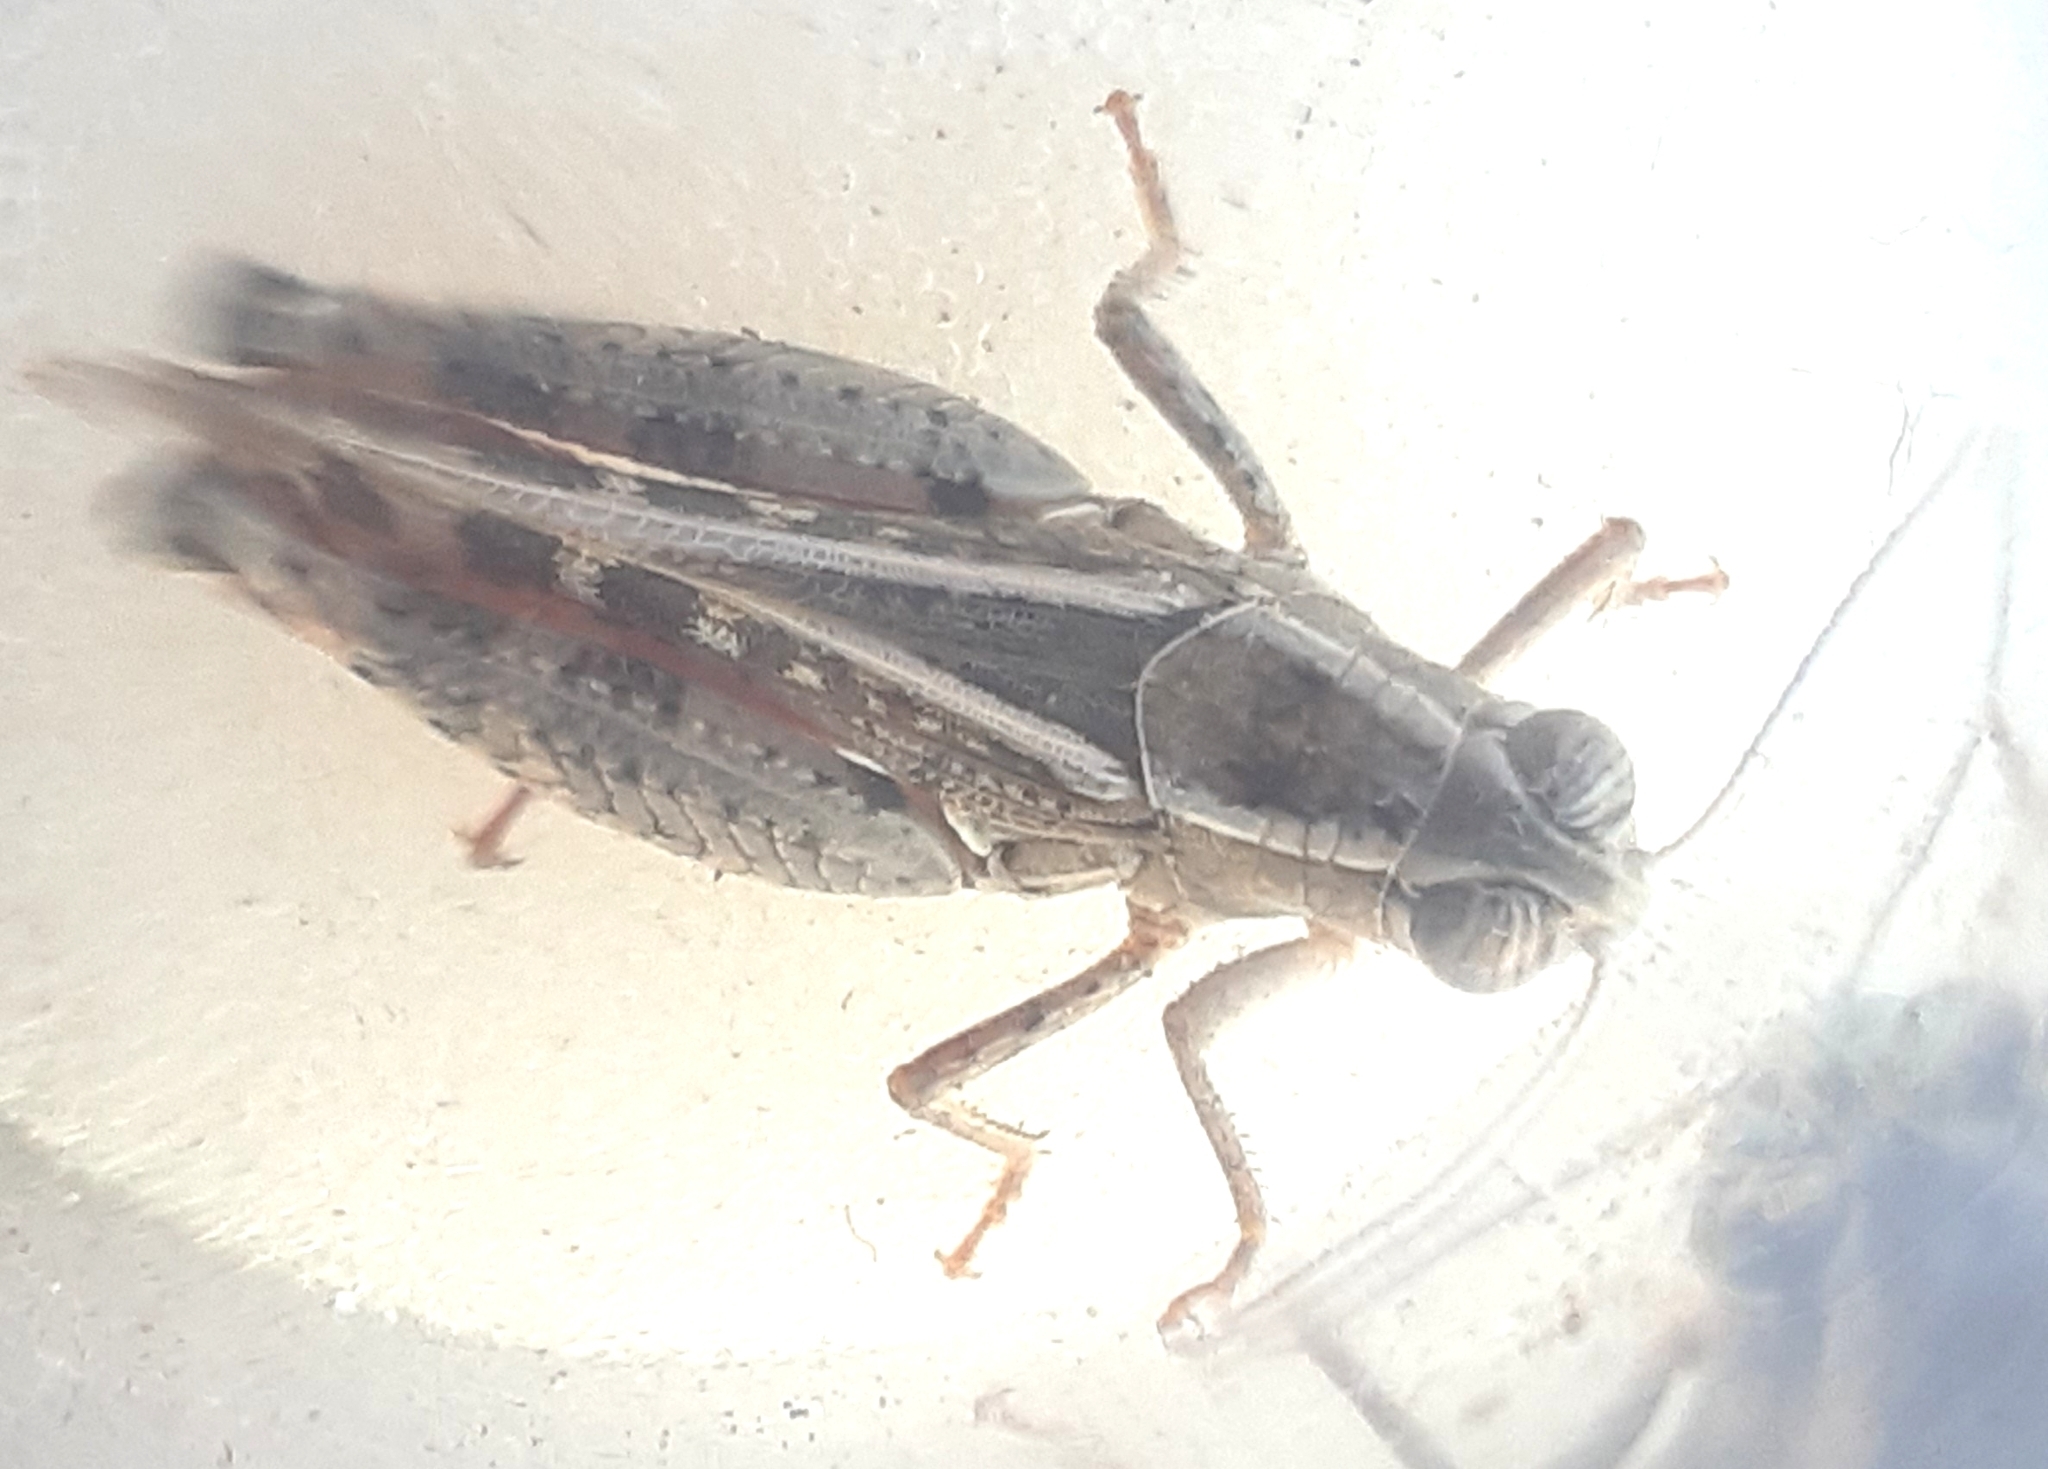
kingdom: Animalia
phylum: Arthropoda
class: Insecta
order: Orthoptera
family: Acrididae
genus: Calliptamus
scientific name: Calliptamus italicus
